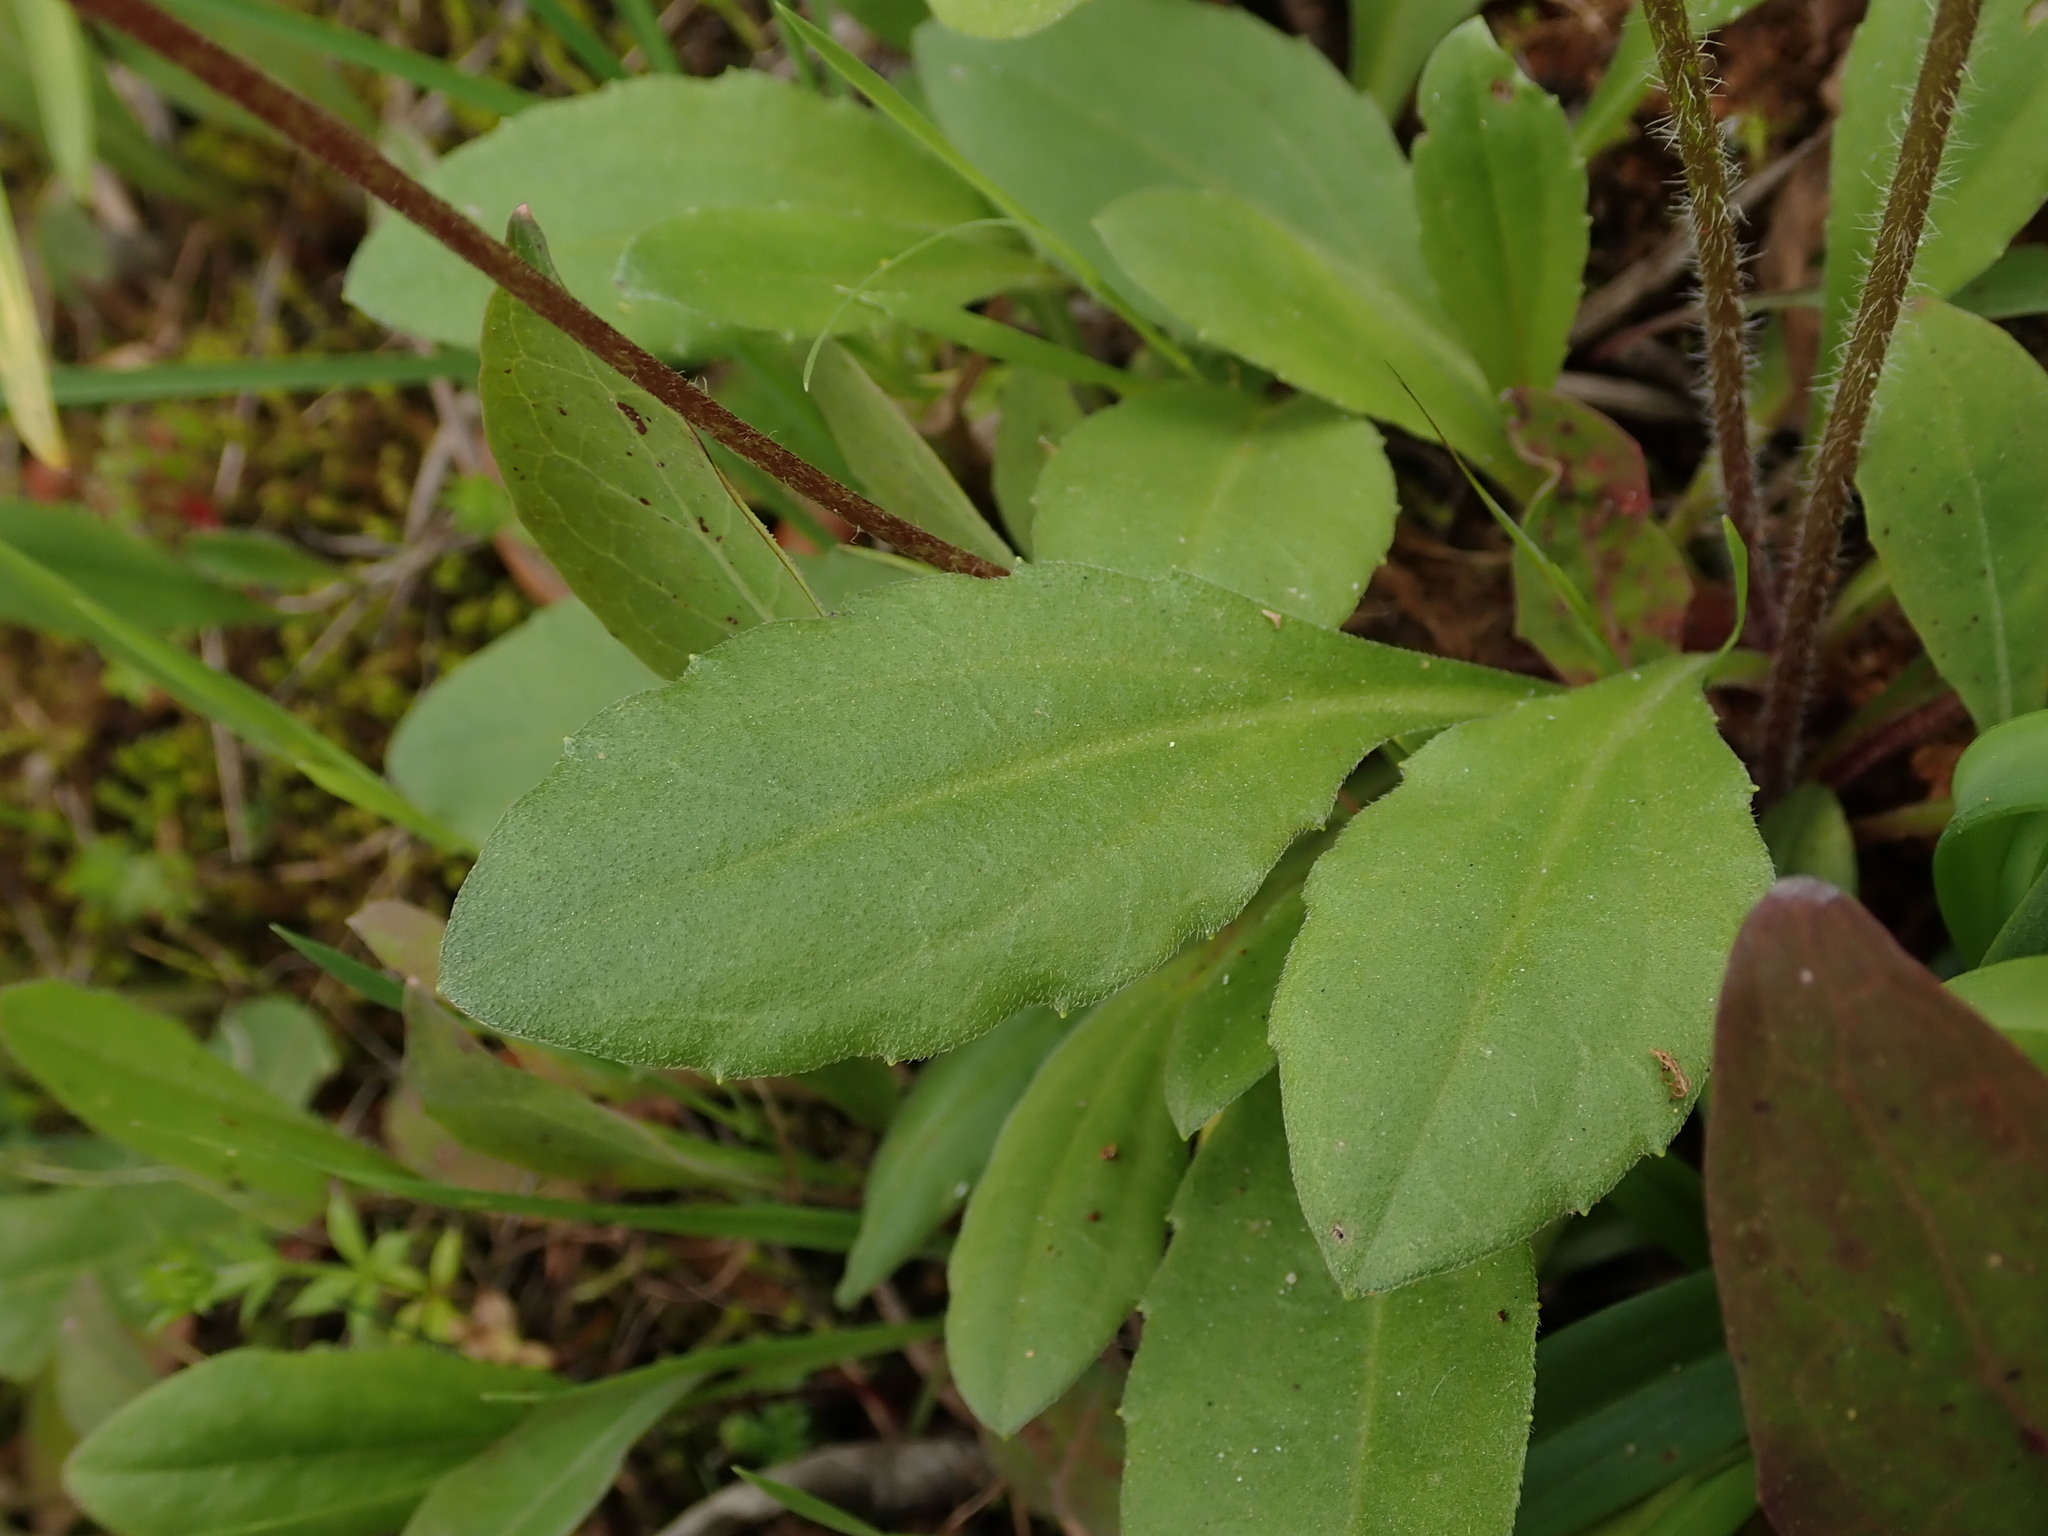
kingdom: Plantae
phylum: Tracheophyta
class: Magnoliopsida
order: Asterales
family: Asteraceae
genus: Bellis
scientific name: Bellis sylvestris
